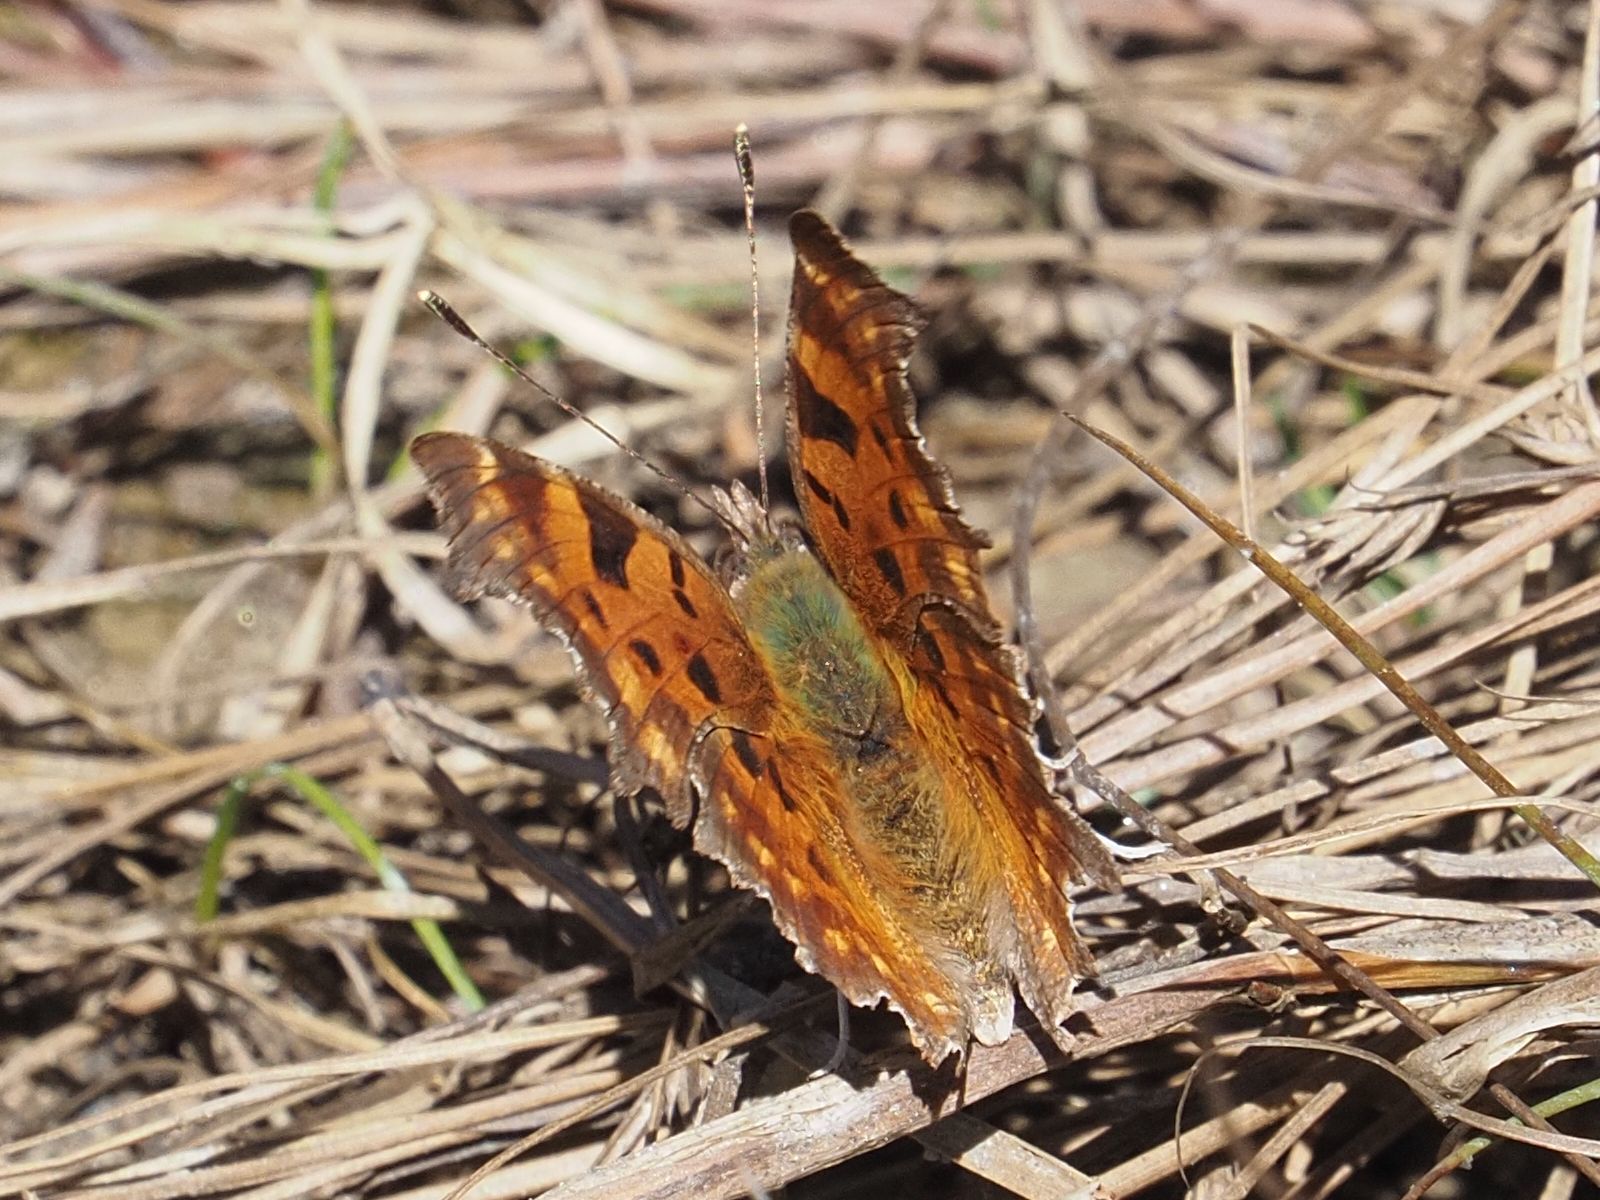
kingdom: Animalia
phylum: Arthropoda
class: Insecta
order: Lepidoptera
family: Nymphalidae
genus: Polygonia
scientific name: Polygonia c-album
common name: Comma
